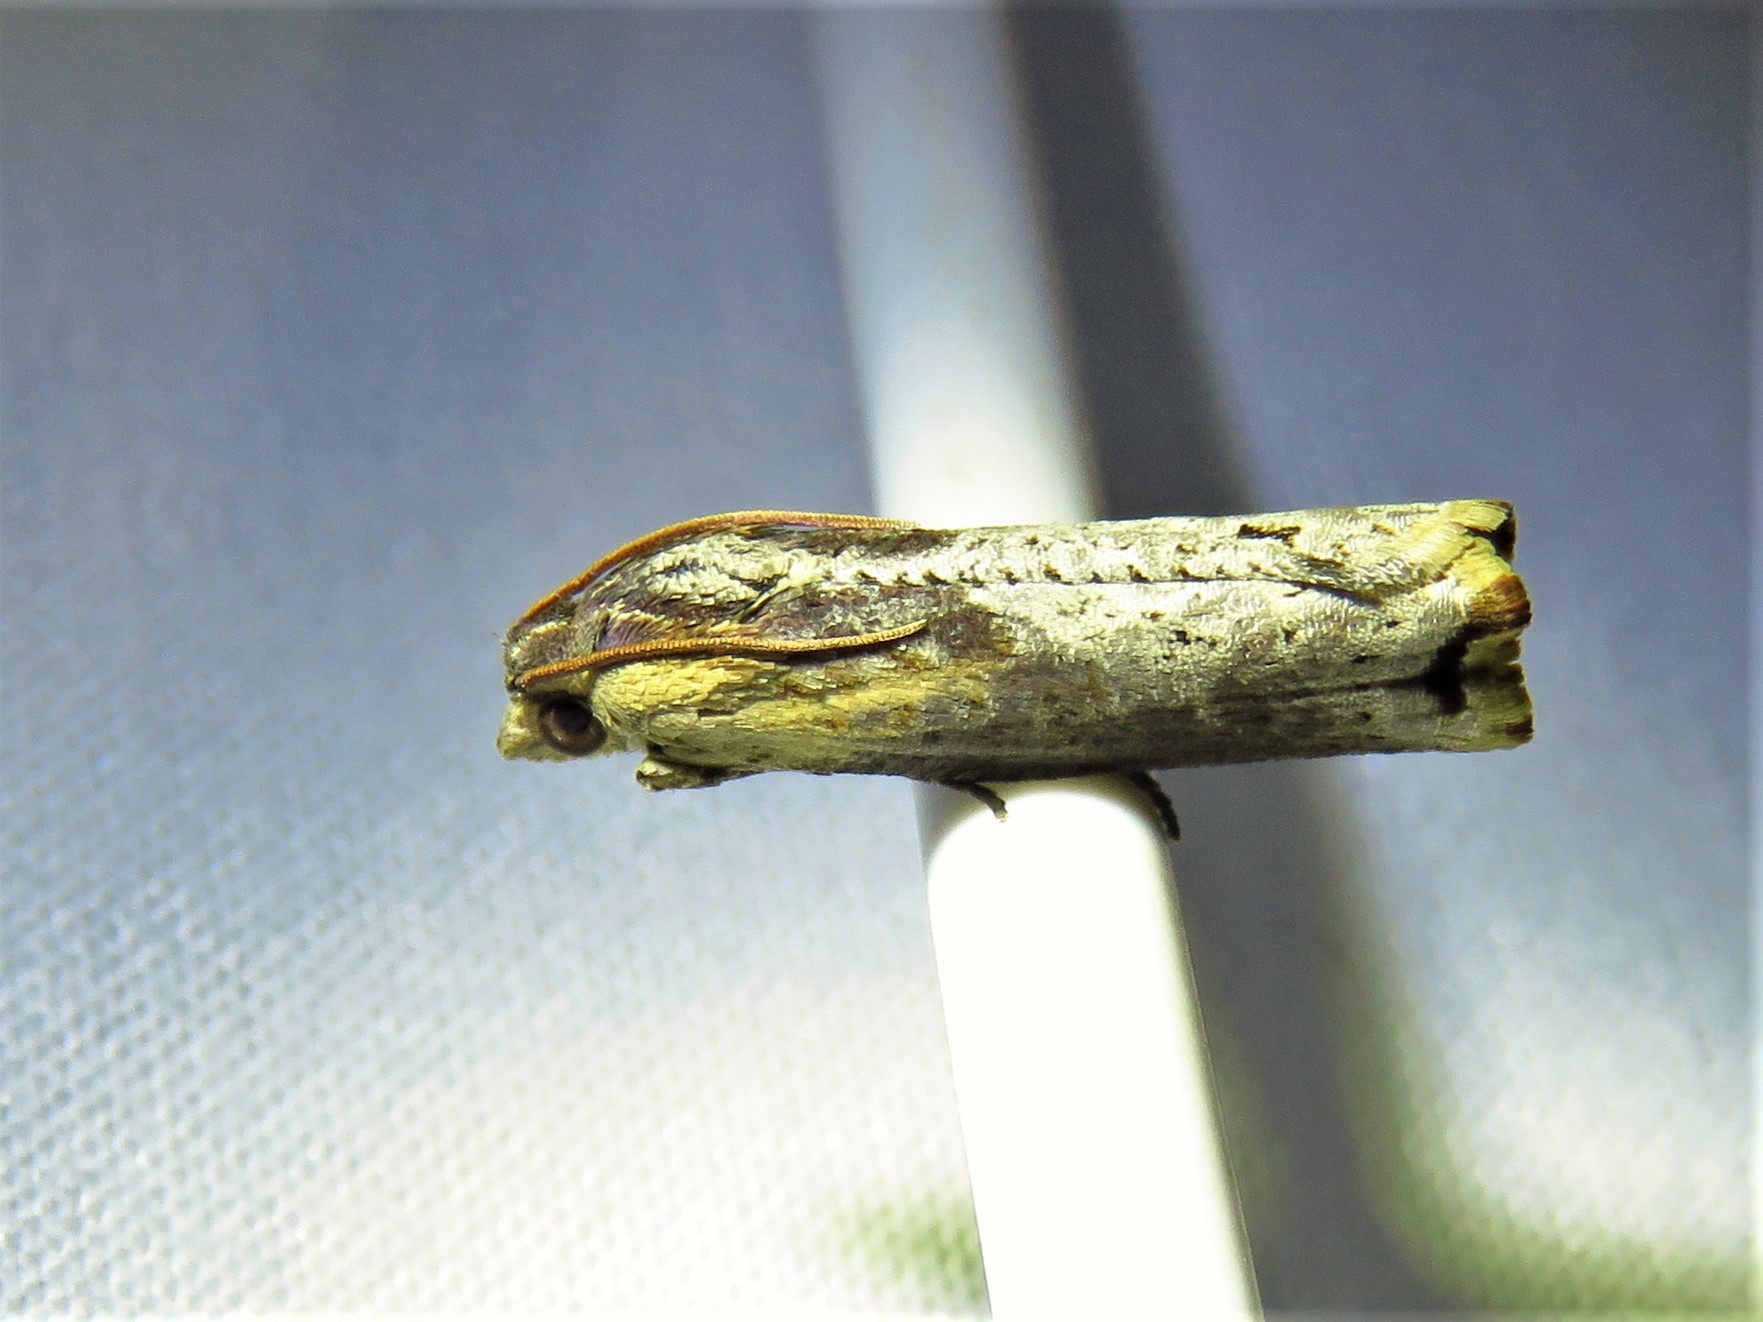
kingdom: Animalia
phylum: Arthropoda
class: Insecta
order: Lepidoptera
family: Tortricidae
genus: Pseudogalleria
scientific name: Pseudogalleria inimicella
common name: Inimical borer moth
